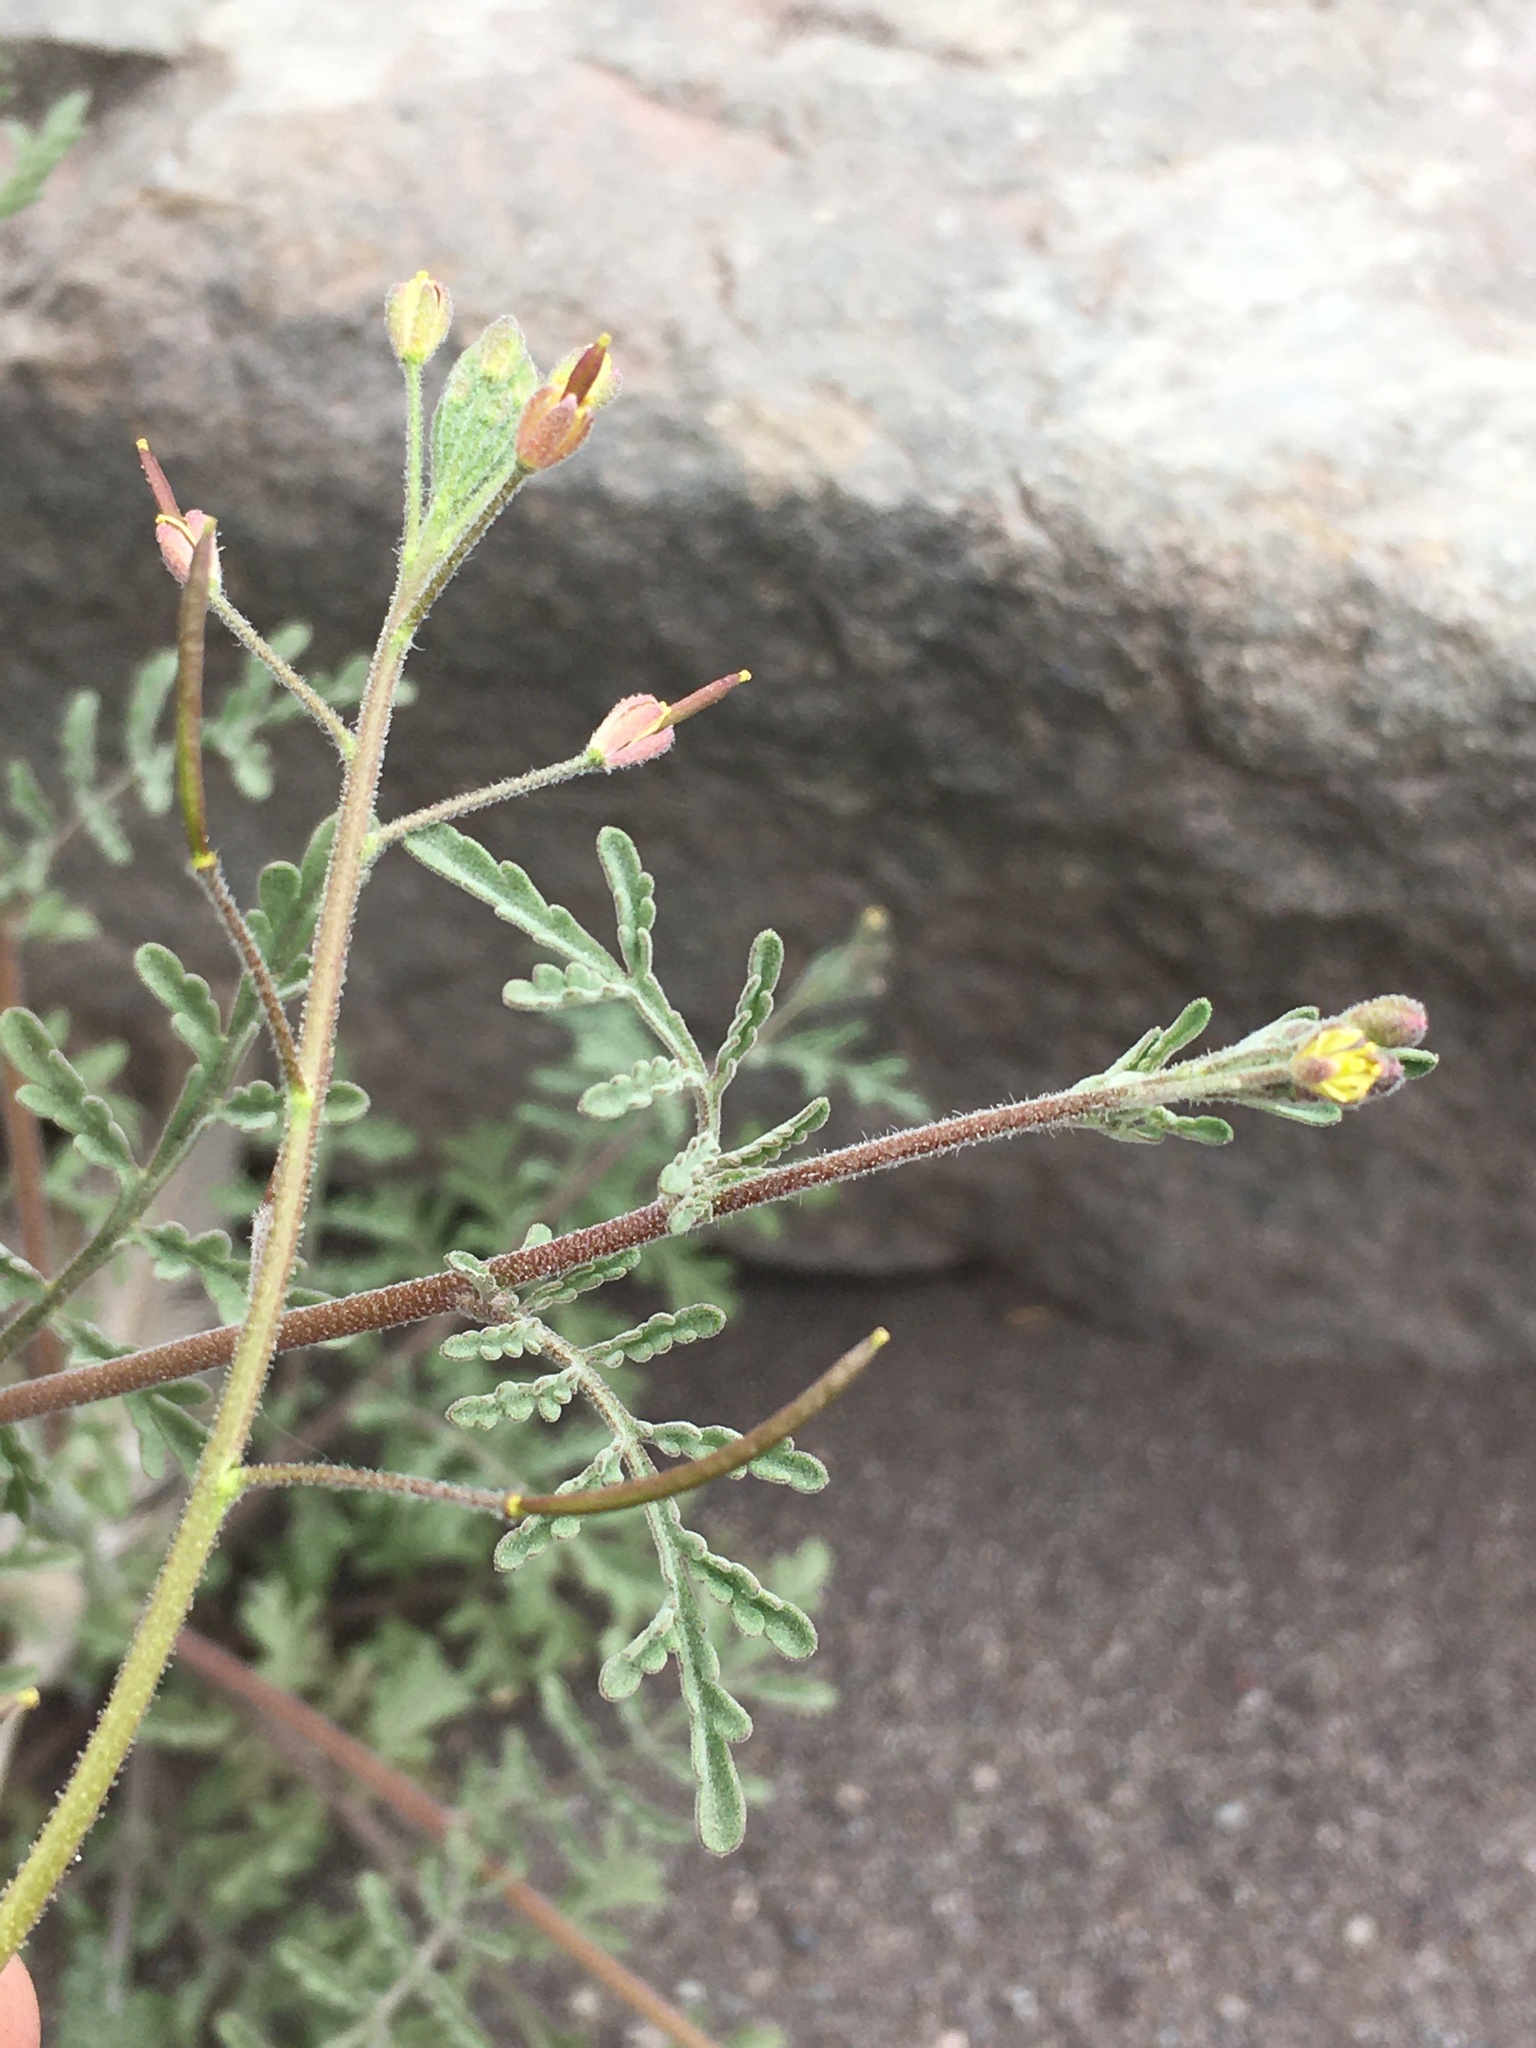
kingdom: Plantae
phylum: Tracheophyta
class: Magnoliopsida
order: Brassicales
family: Brassicaceae
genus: Descurainia
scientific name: Descurainia pimpinellifolia
